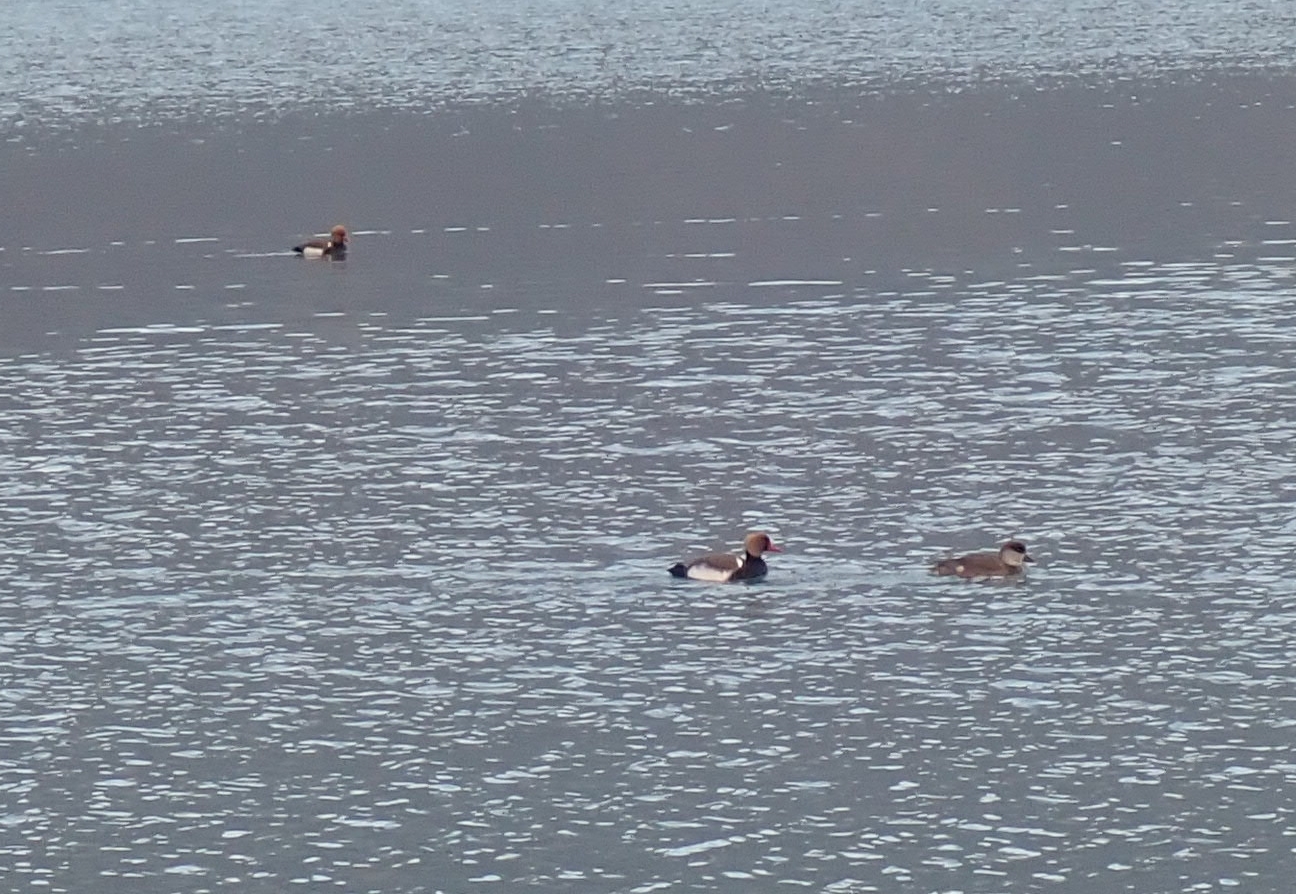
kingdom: Animalia
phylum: Chordata
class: Aves
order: Anseriformes
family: Anatidae
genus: Netta
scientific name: Netta rufina
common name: Red-crested pochard
